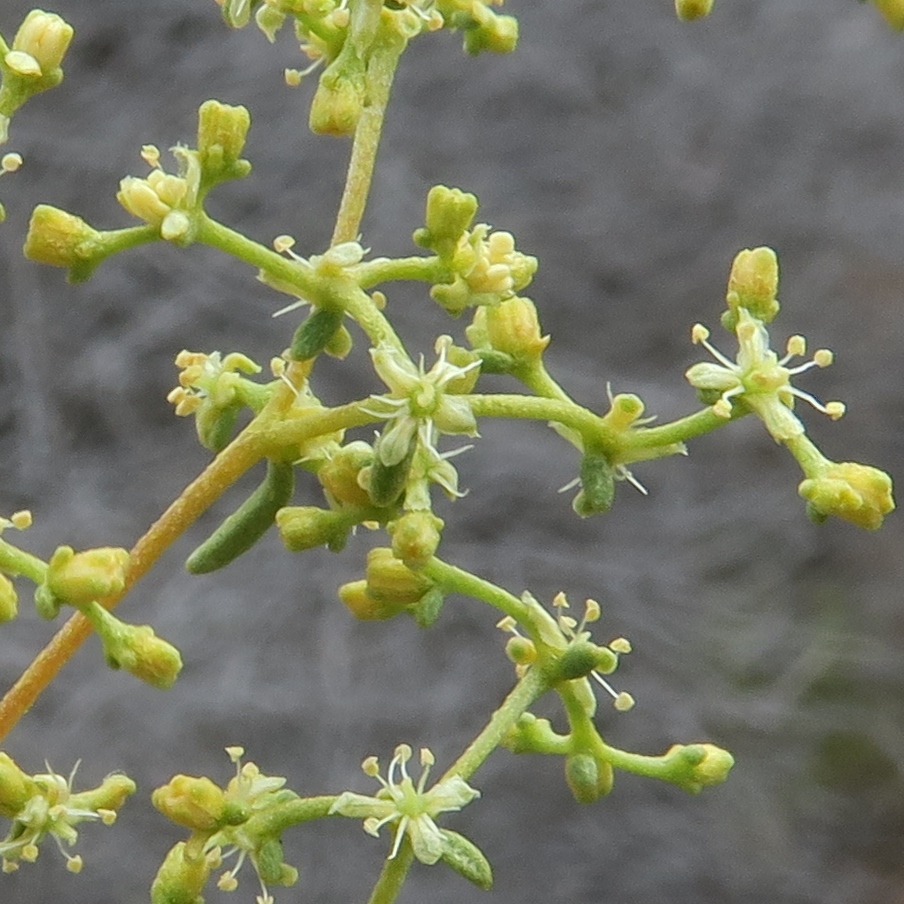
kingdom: Plantae
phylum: Tracheophyta
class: Magnoliopsida
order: Caryophyllales
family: Aizoaceae
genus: Aizoon
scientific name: Aizoon africanum
